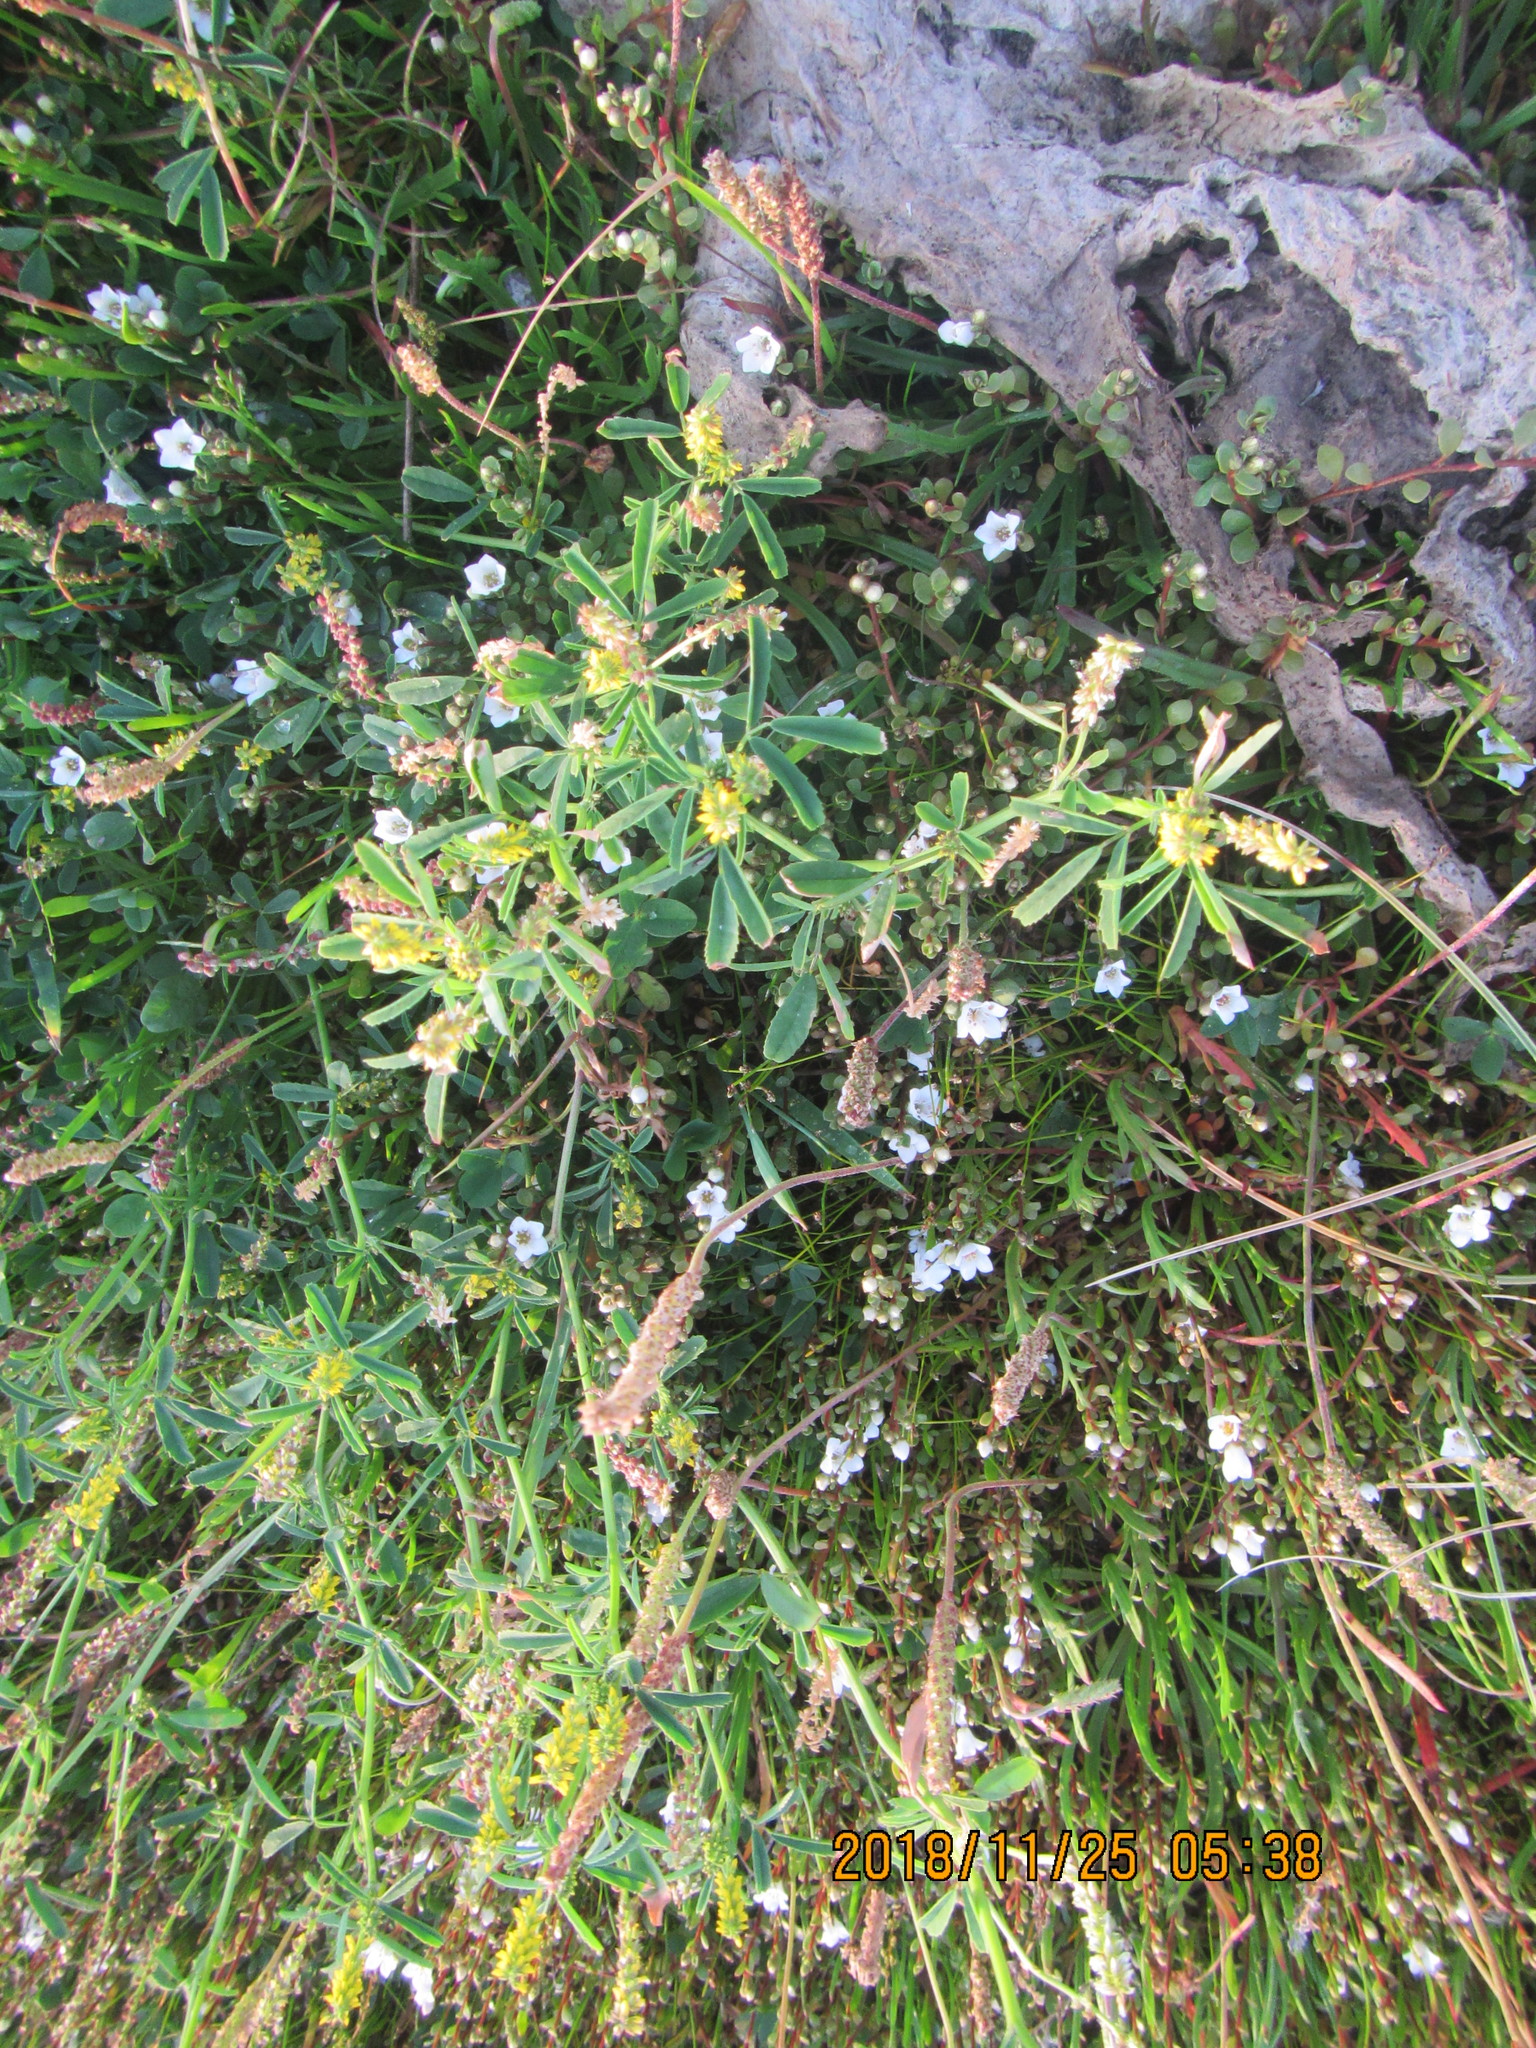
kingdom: Plantae
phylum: Tracheophyta
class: Magnoliopsida
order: Fabales
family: Fabaceae
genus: Melilotus
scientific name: Melilotus indicus
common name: Small melilot
